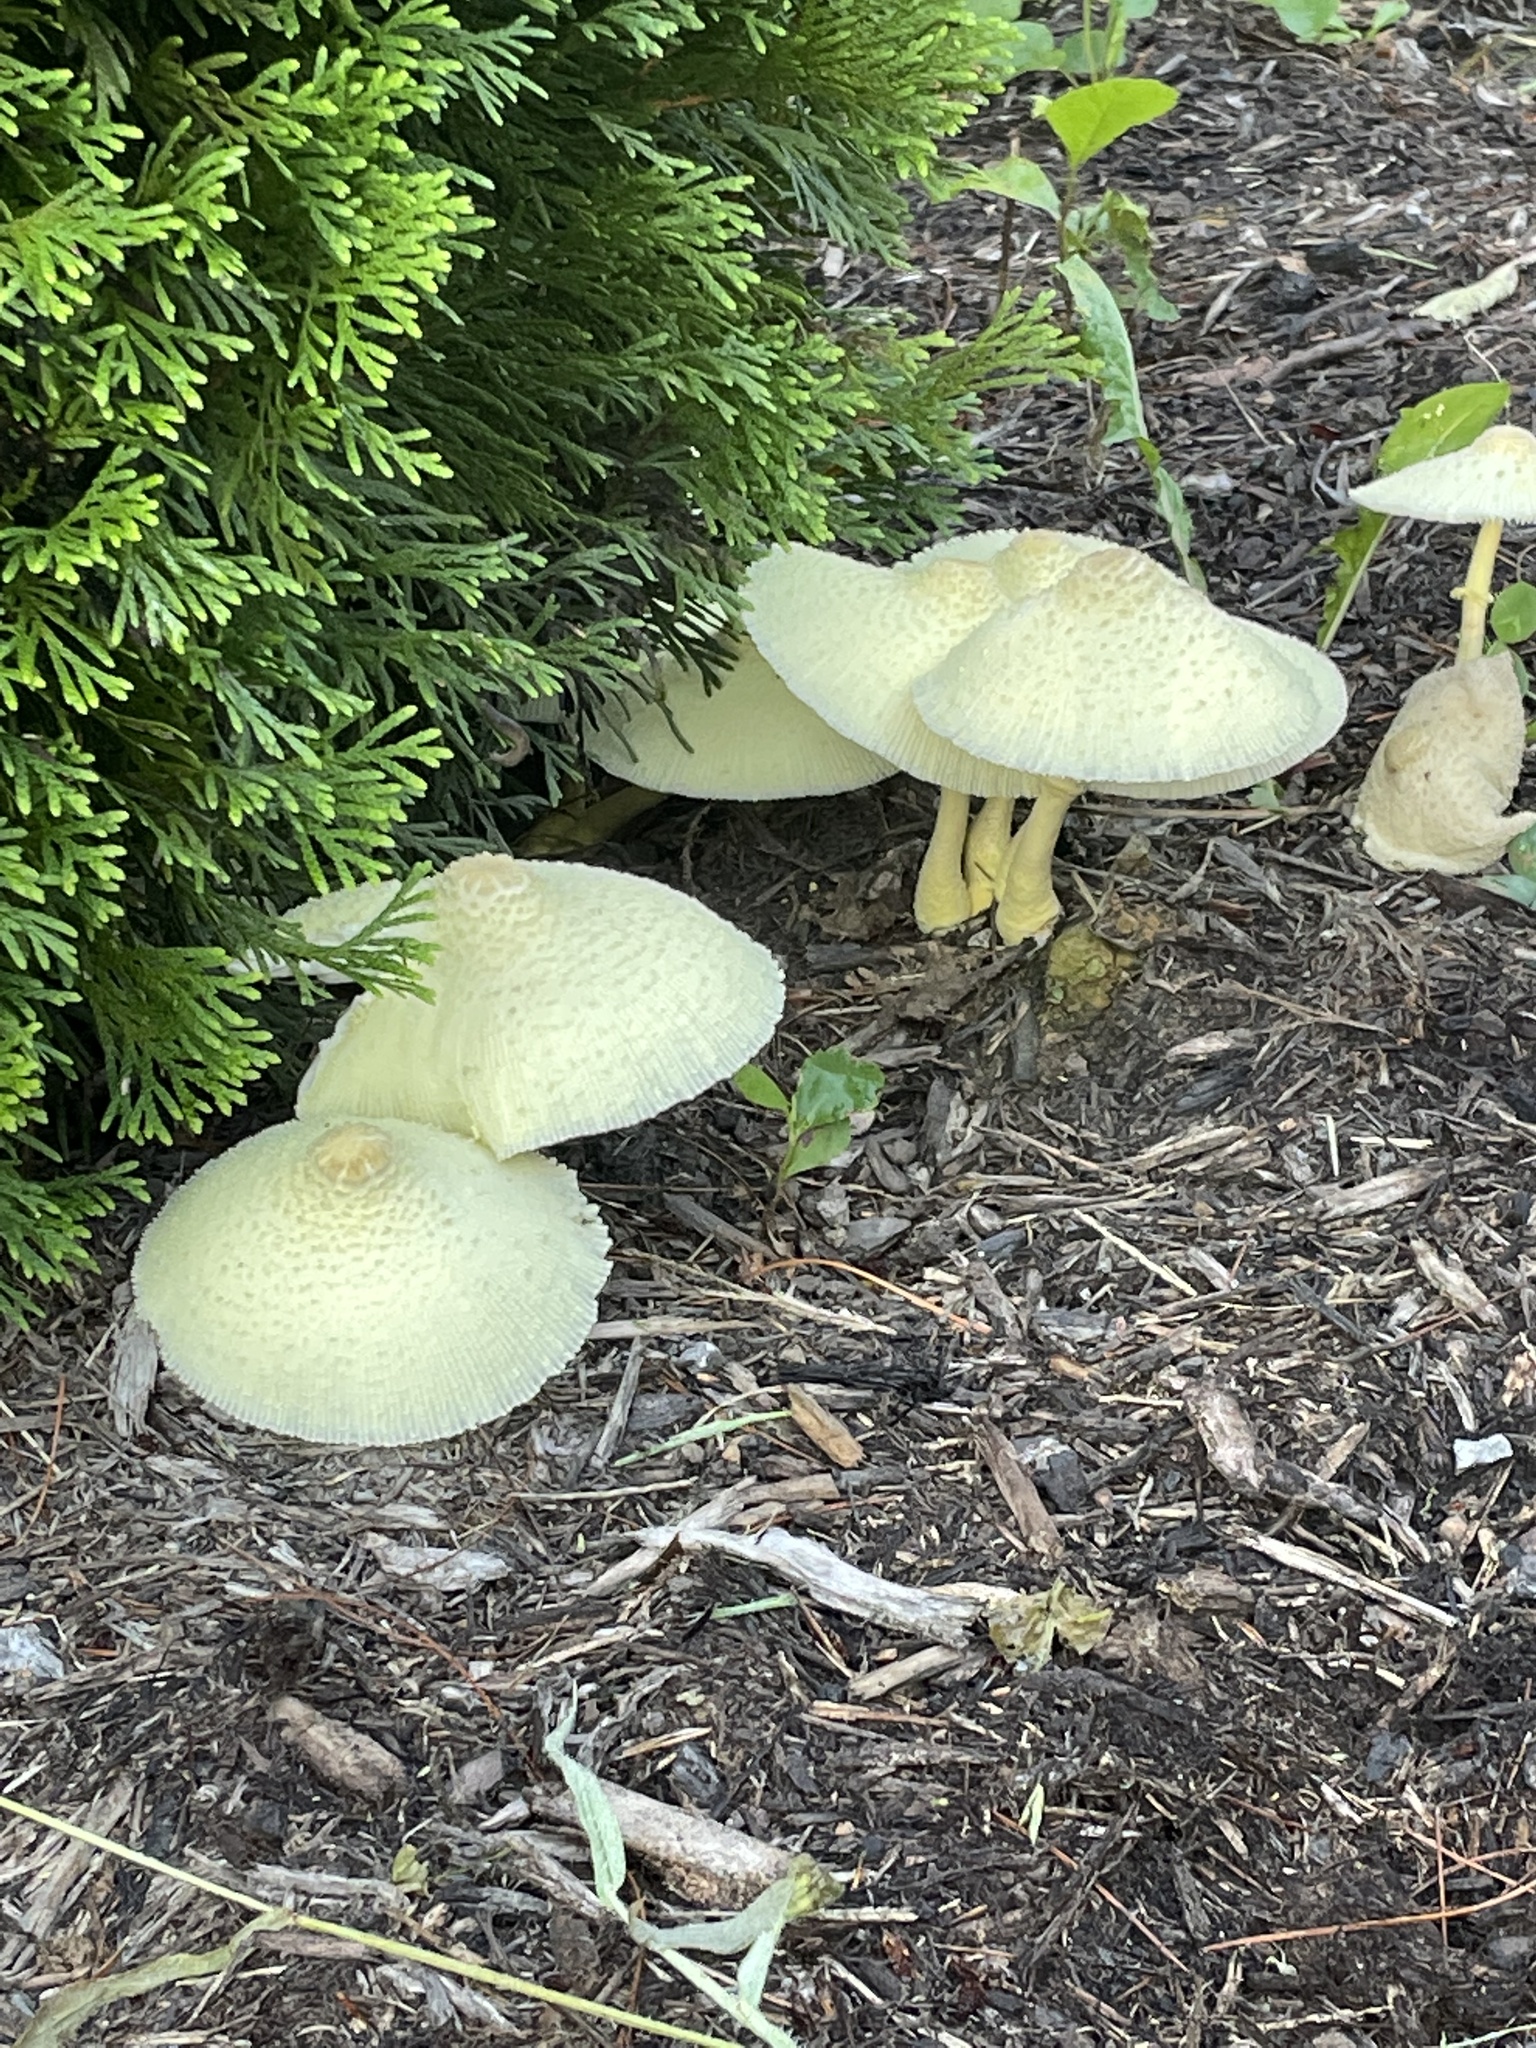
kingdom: Fungi
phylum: Basidiomycota
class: Agaricomycetes
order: Agaricales
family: Agaricaceae
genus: Leucocoprinus
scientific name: Leucocoprinus birnbaumii
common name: Plantpot dapperling
